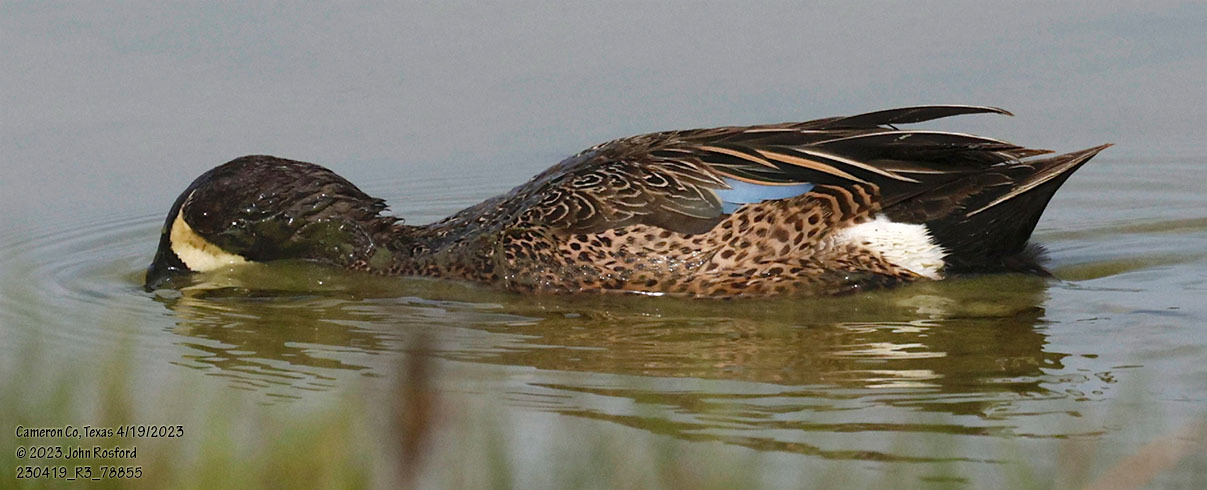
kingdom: Animalia
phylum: Chordata
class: Aves
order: Anseriformes
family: Anatidae
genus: Spatula
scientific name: Spatula discors
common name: Blue-winged teal
